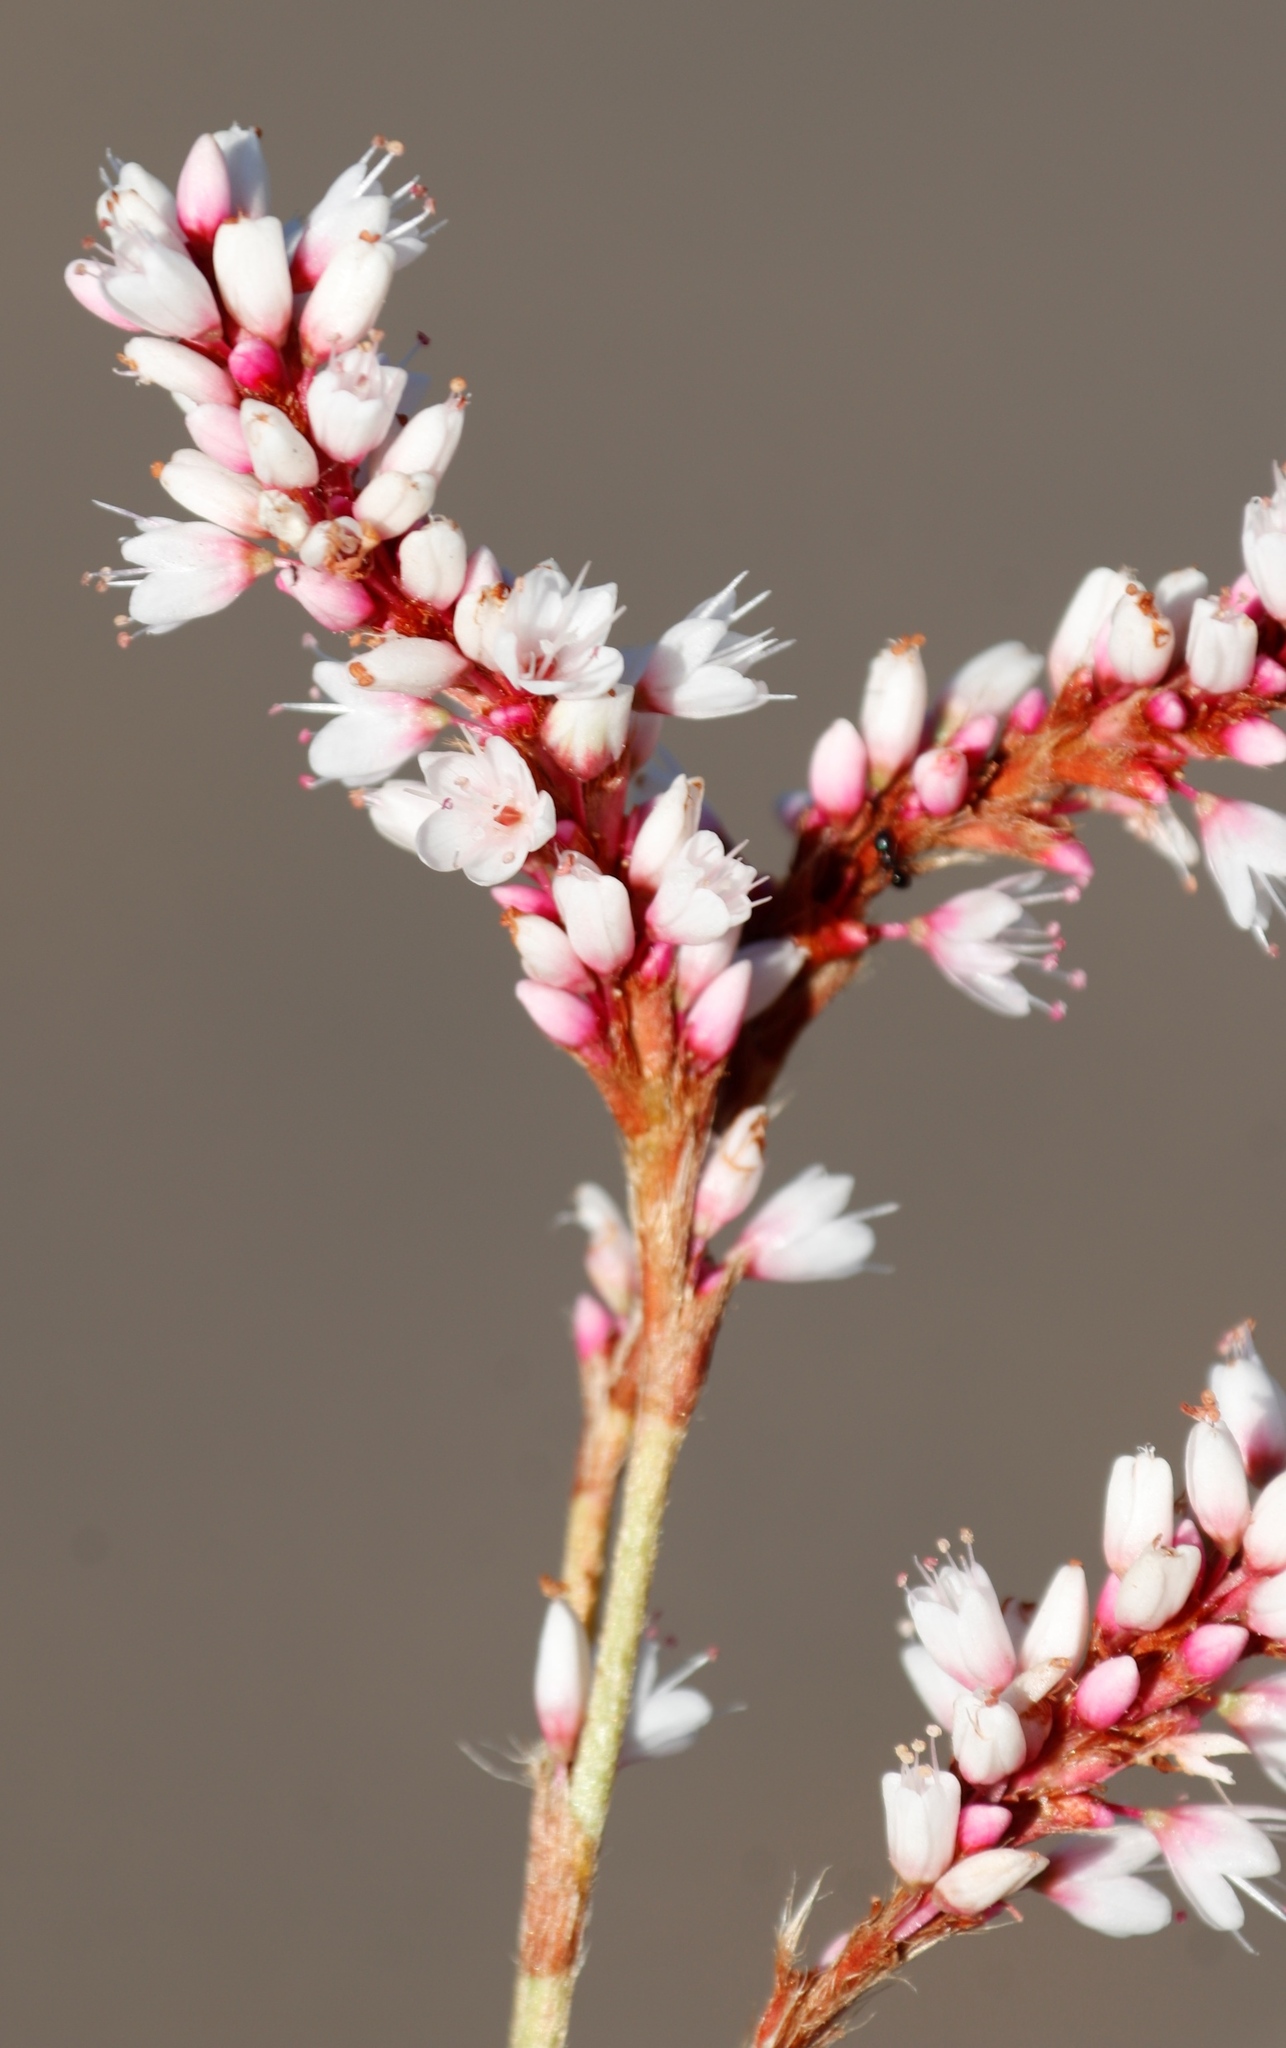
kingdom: Plantae
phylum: Tracheophyta
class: Magnoliopsida
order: Caryophyllales
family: Polygonaceae
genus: Persicaria
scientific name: Persicaria madagascariensis
